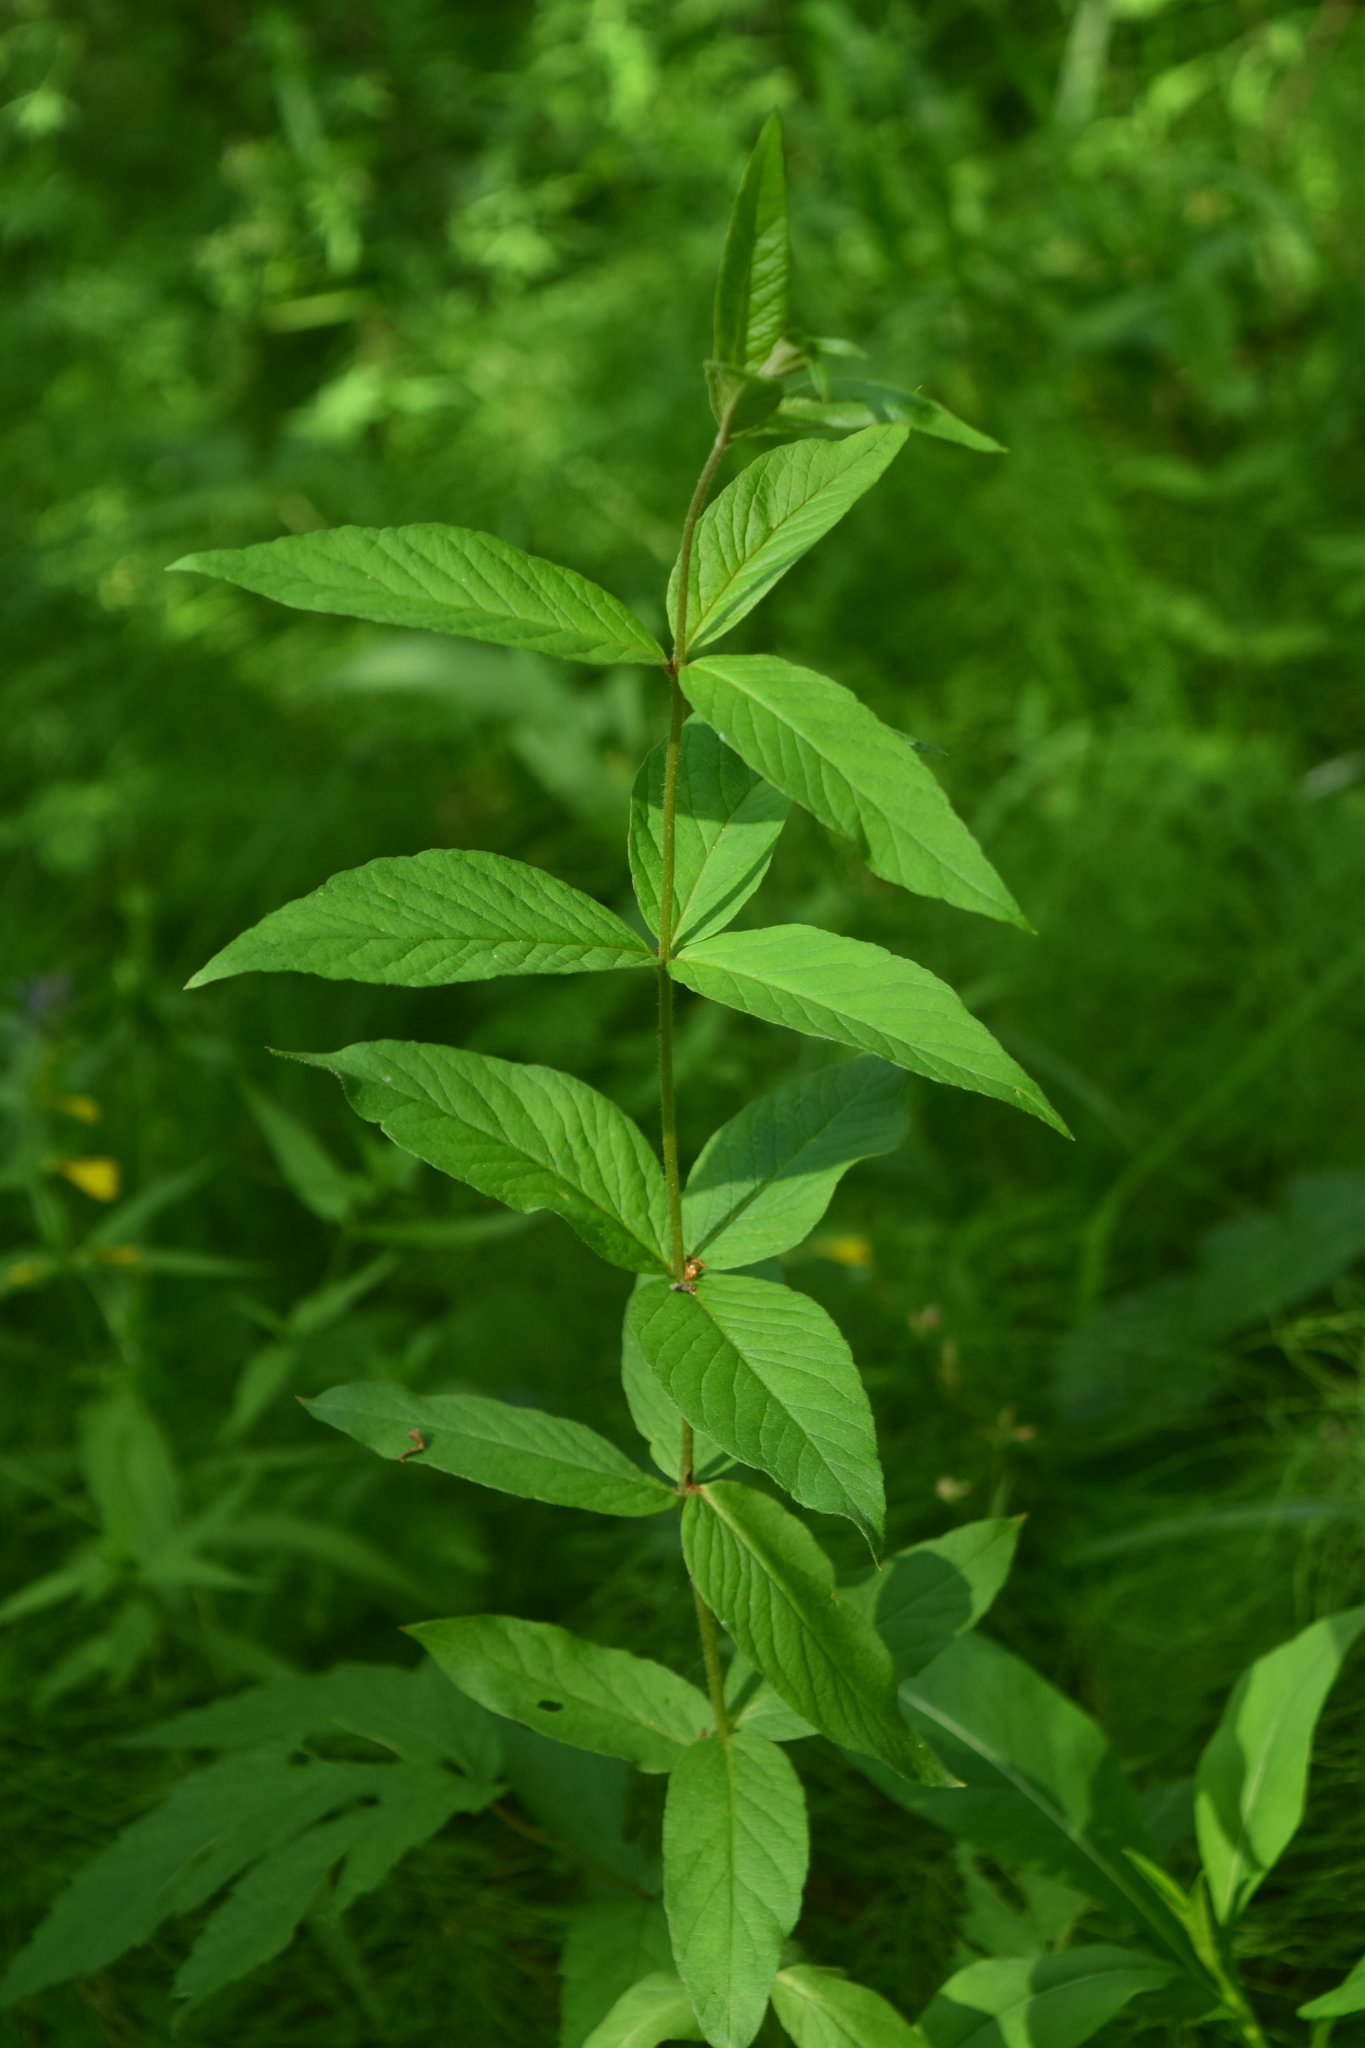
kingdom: Plantae
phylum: Tracheophyta
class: Magnoliopsida
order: Ericales
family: Primulaceae
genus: Lysimachia
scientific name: Lysimachia vulgaris
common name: Yellow loosestrife
